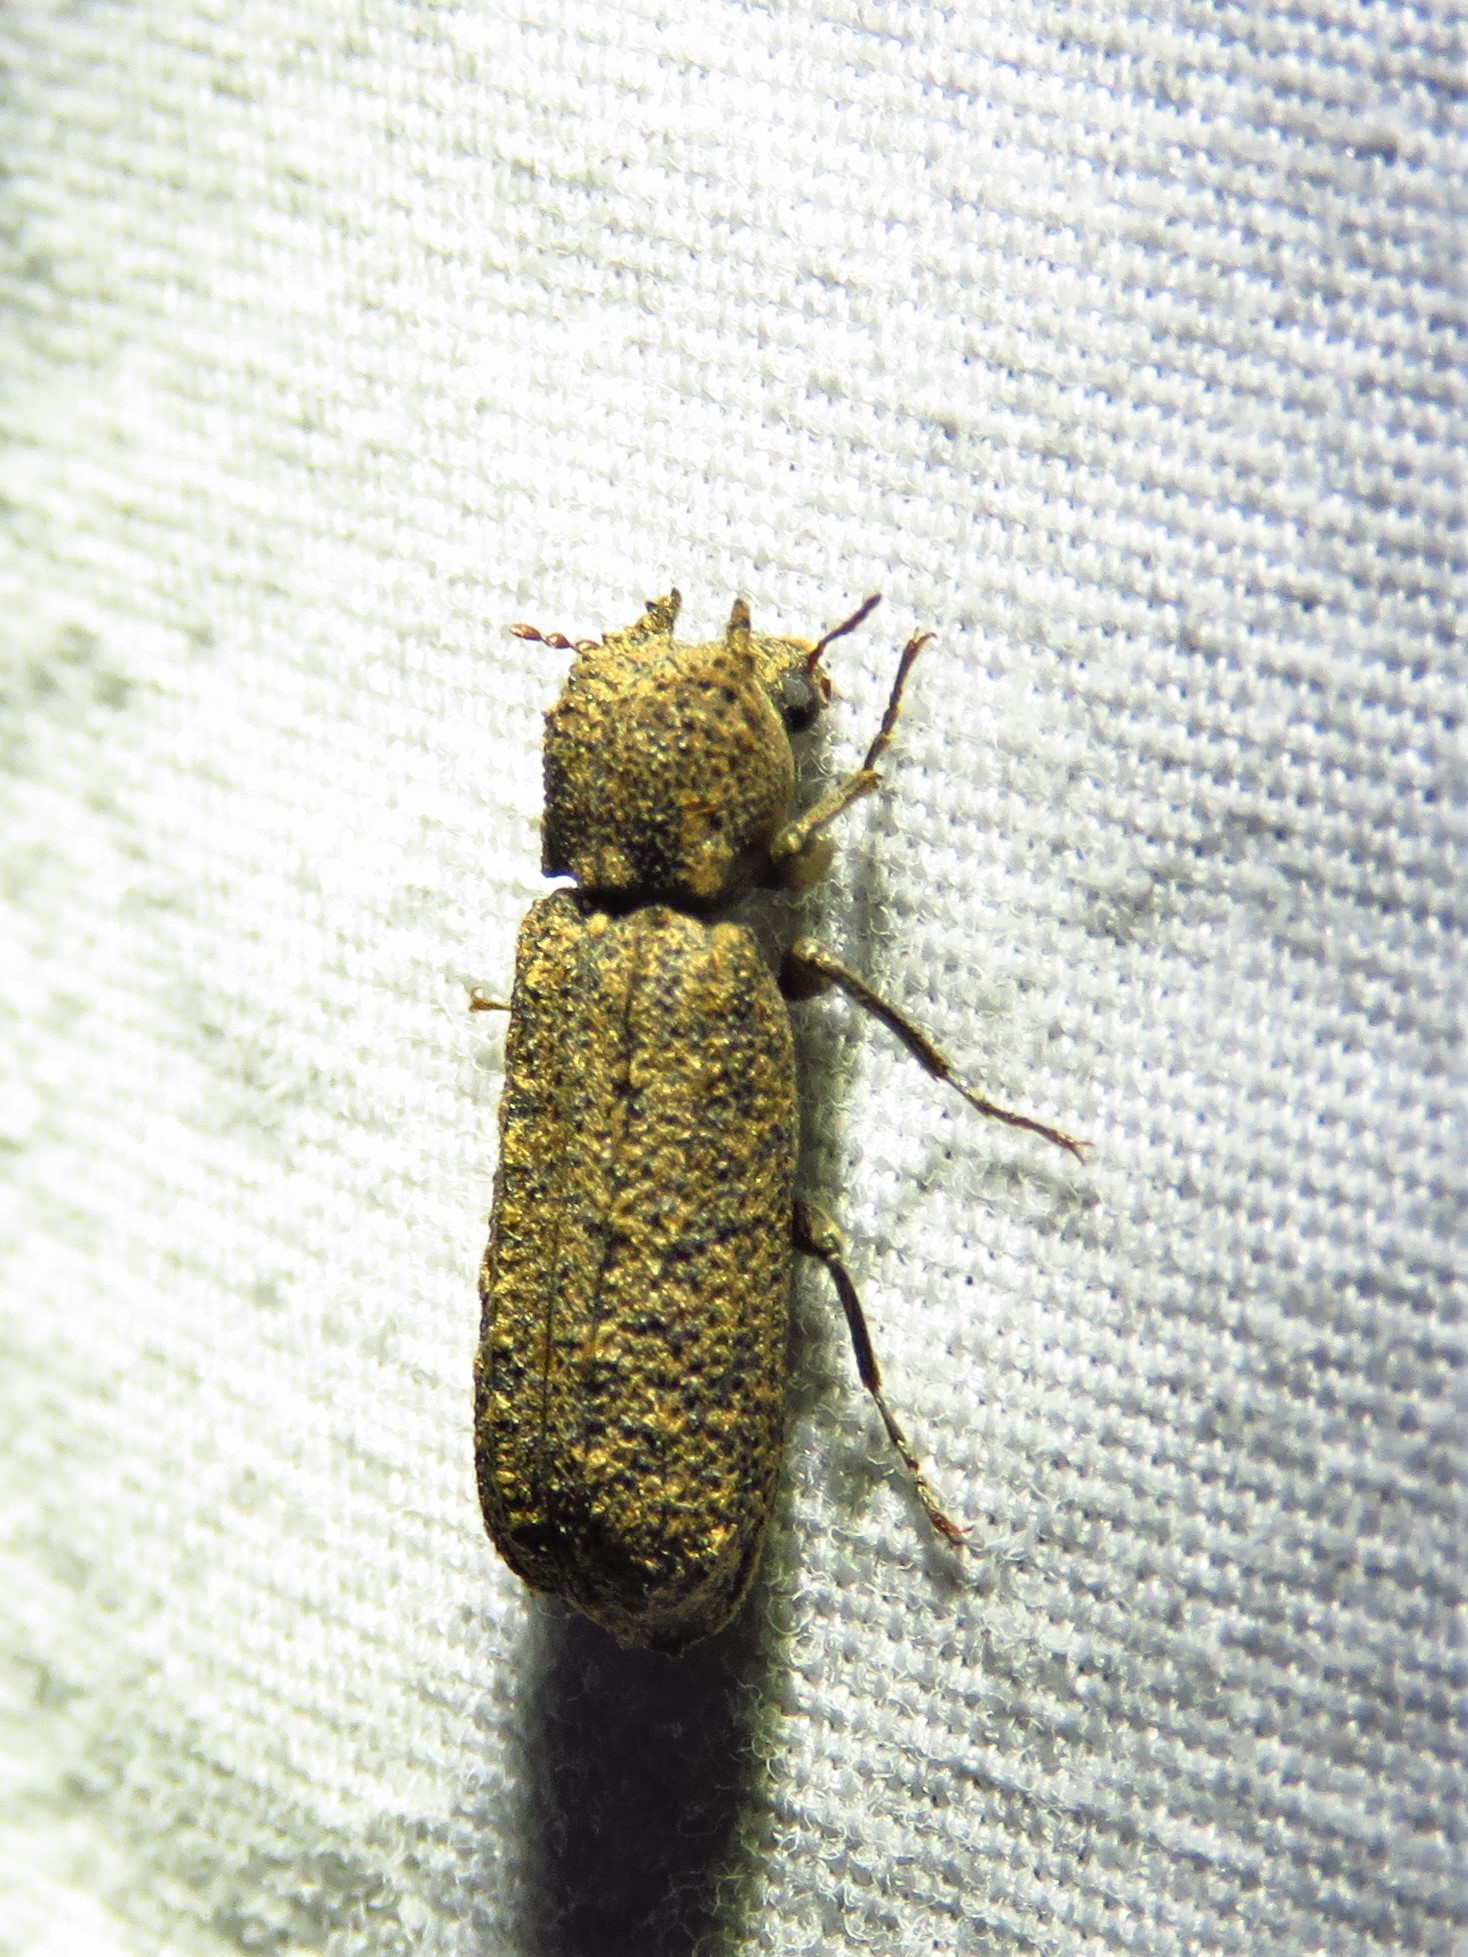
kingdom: Animalia
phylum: Arthropoda
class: Insecta
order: Coleoptera
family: Bostrichidae
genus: Lichenophanes
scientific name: Lichenophanes bicornis
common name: Two-horned powder-post beetle
